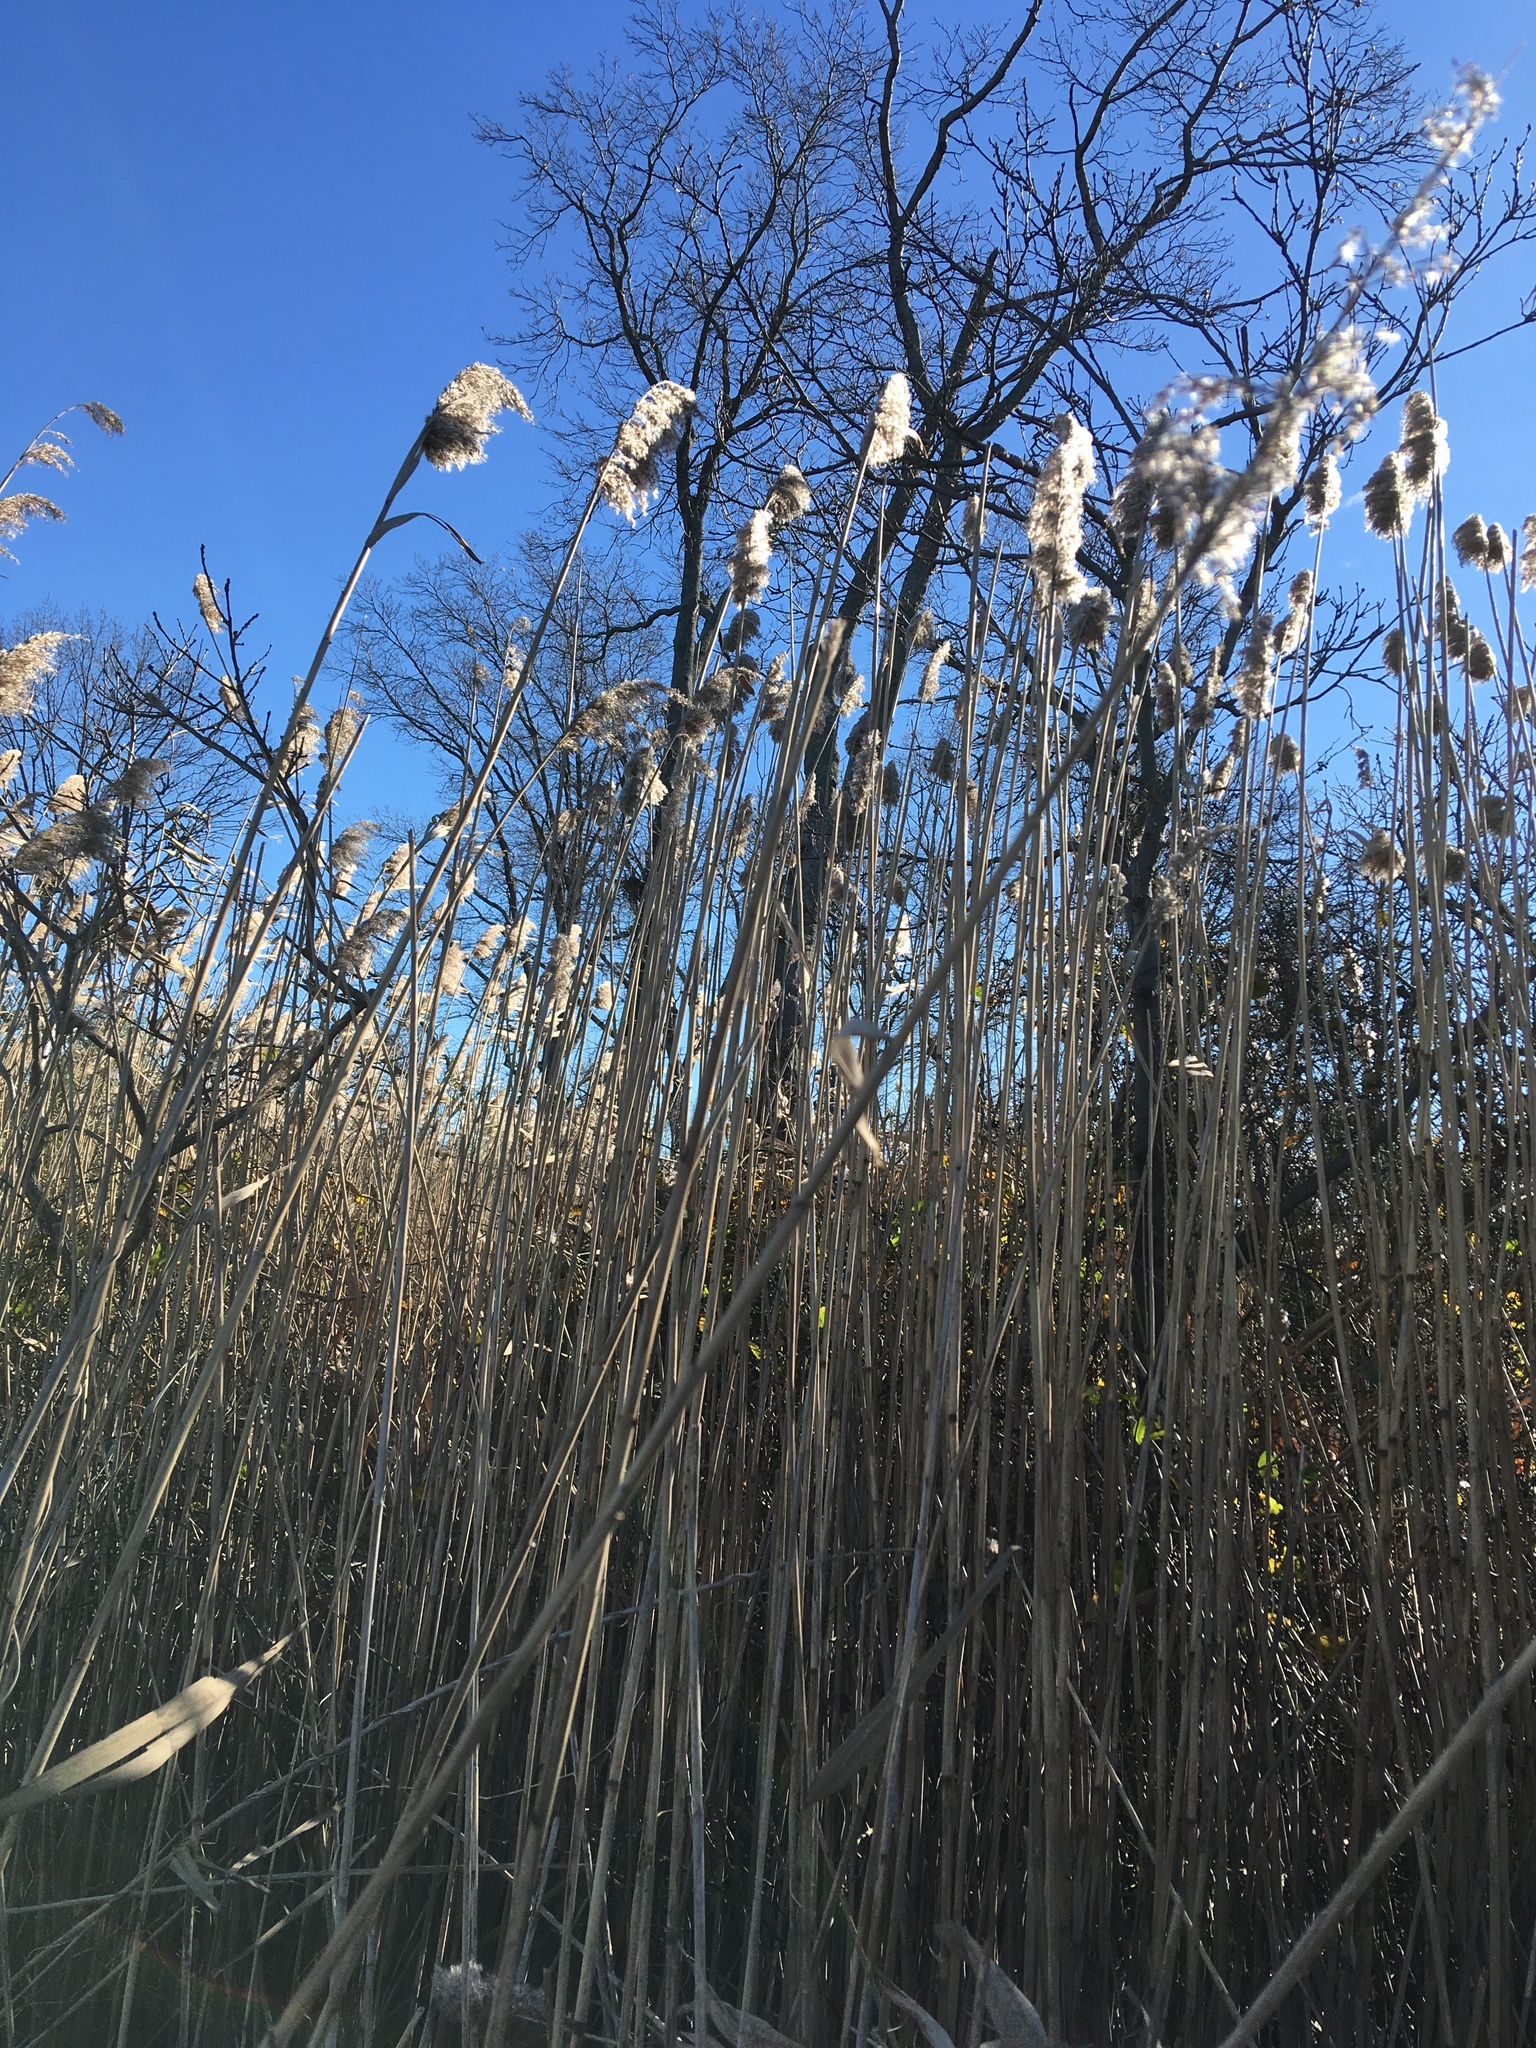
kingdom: Plantae
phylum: Tracheophyta
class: Liliopsida
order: Poales
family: Poaceae
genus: Phragmites
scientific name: Phragmites australis
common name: Common reed
